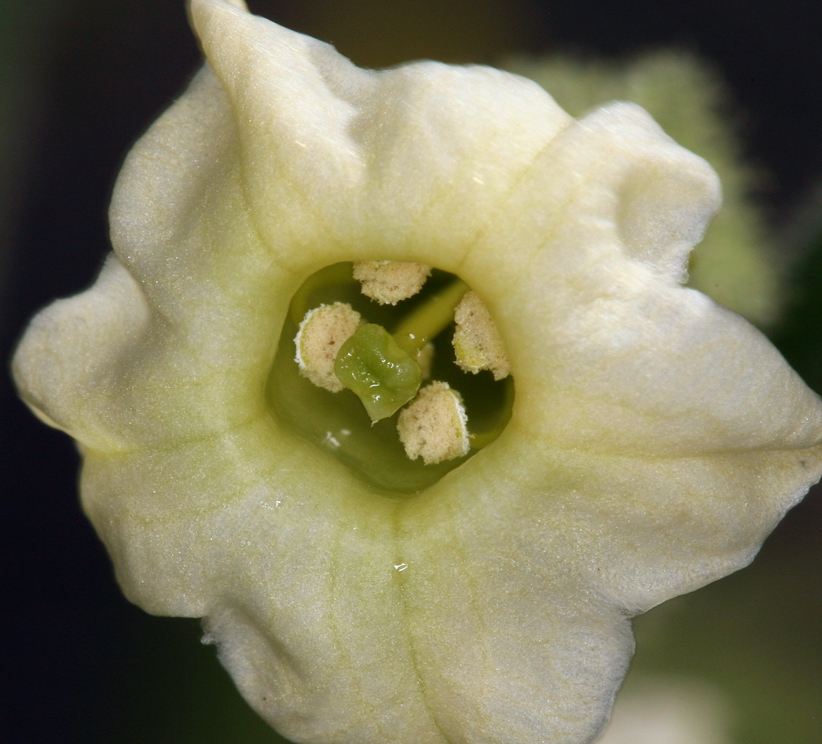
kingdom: Plantae
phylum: Tracheophyta
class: Magnoliopsida
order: Solanales
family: Solanaceae
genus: Nicotiana
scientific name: Nicotiana obtusifolia
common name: Desert tobacco
